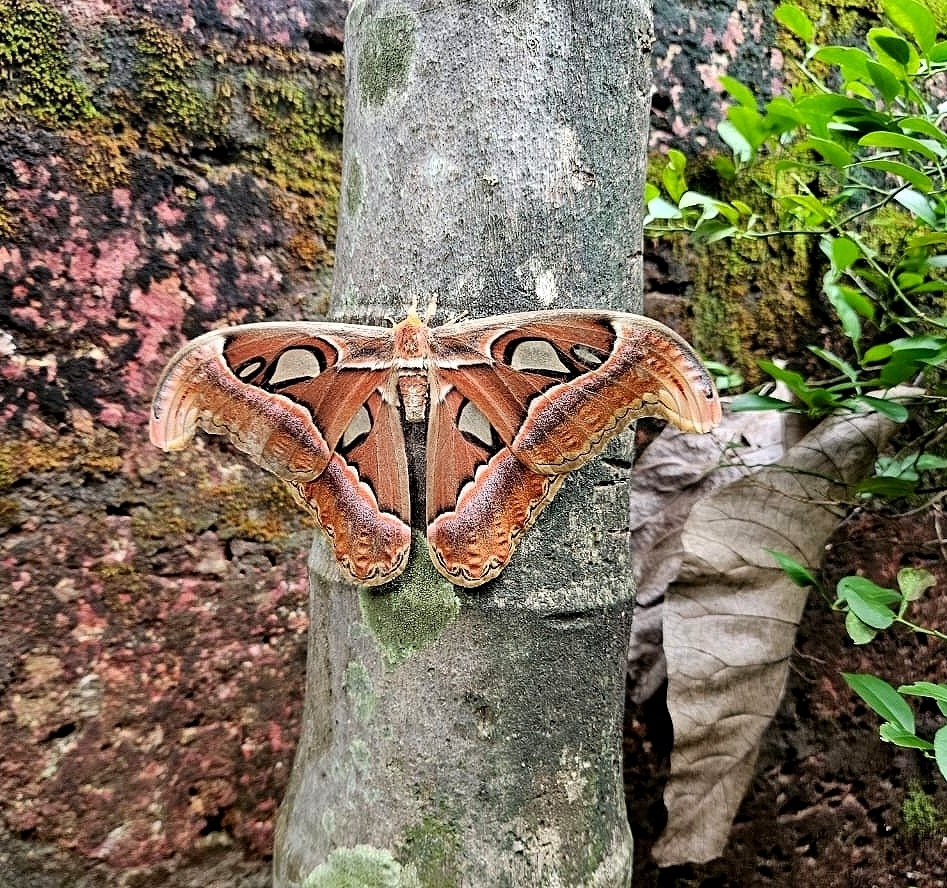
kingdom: Animalia
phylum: Arthropoda
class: Insecta
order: Lepidoptera
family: Saturniidae
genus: Attacus
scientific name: Attacus taprobanis
